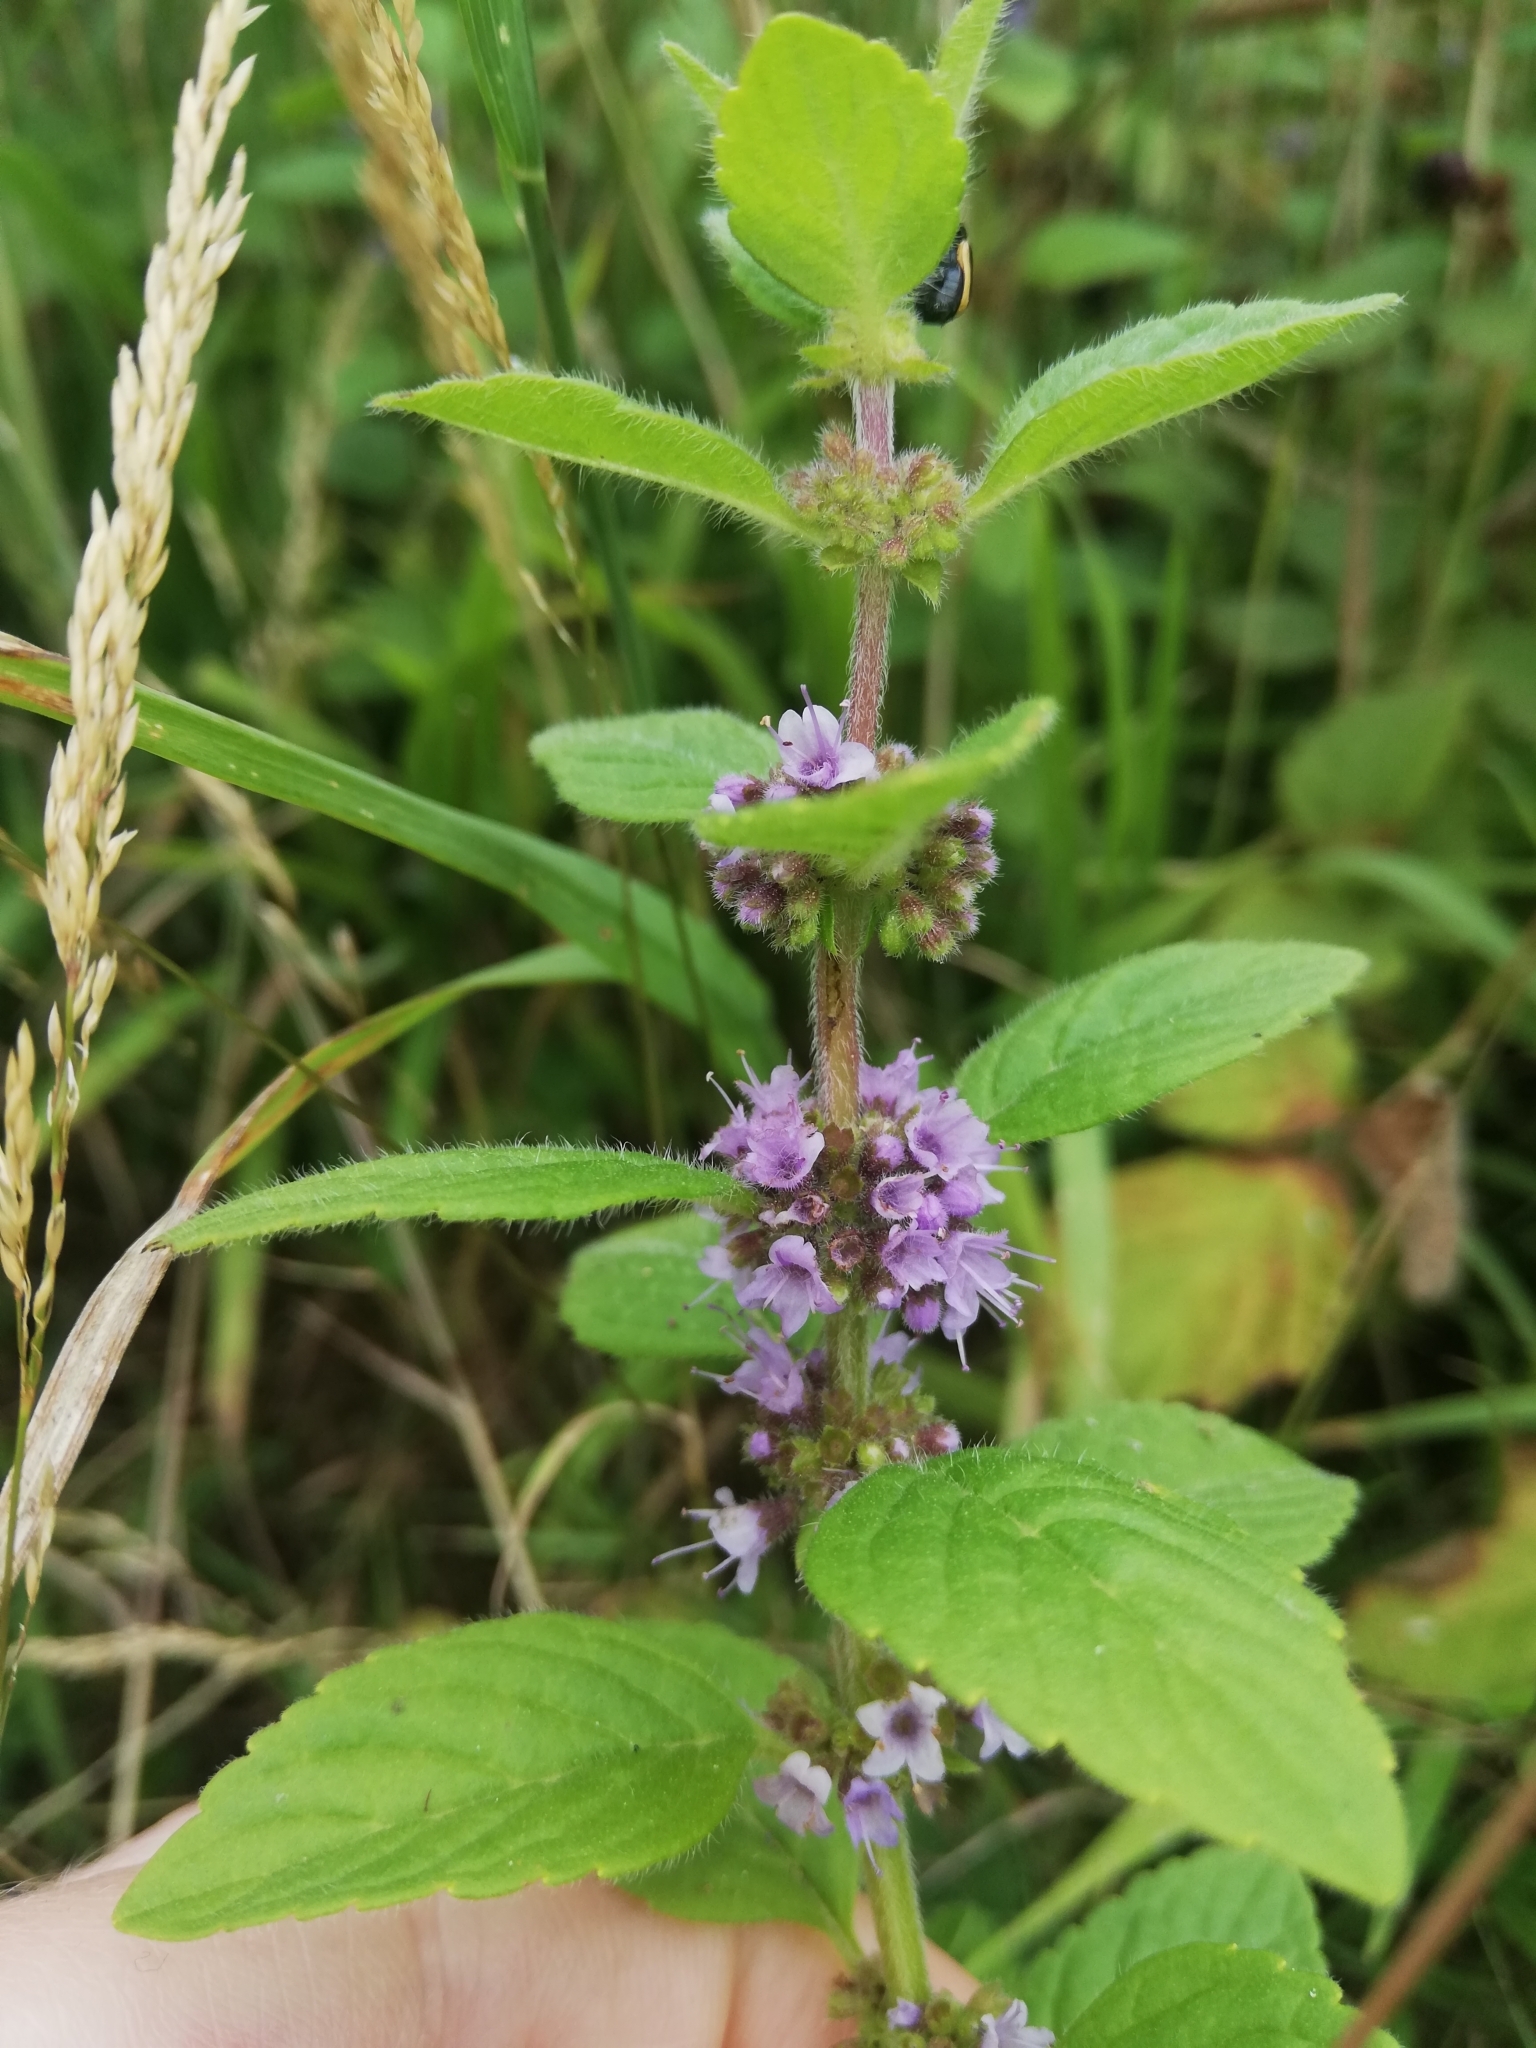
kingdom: Plantae
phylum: Tracheophyta
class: Magnoliopsida
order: Lamiales
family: Lamiaceae
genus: Mentha
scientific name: Mentha arvensis
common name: Corn mint
